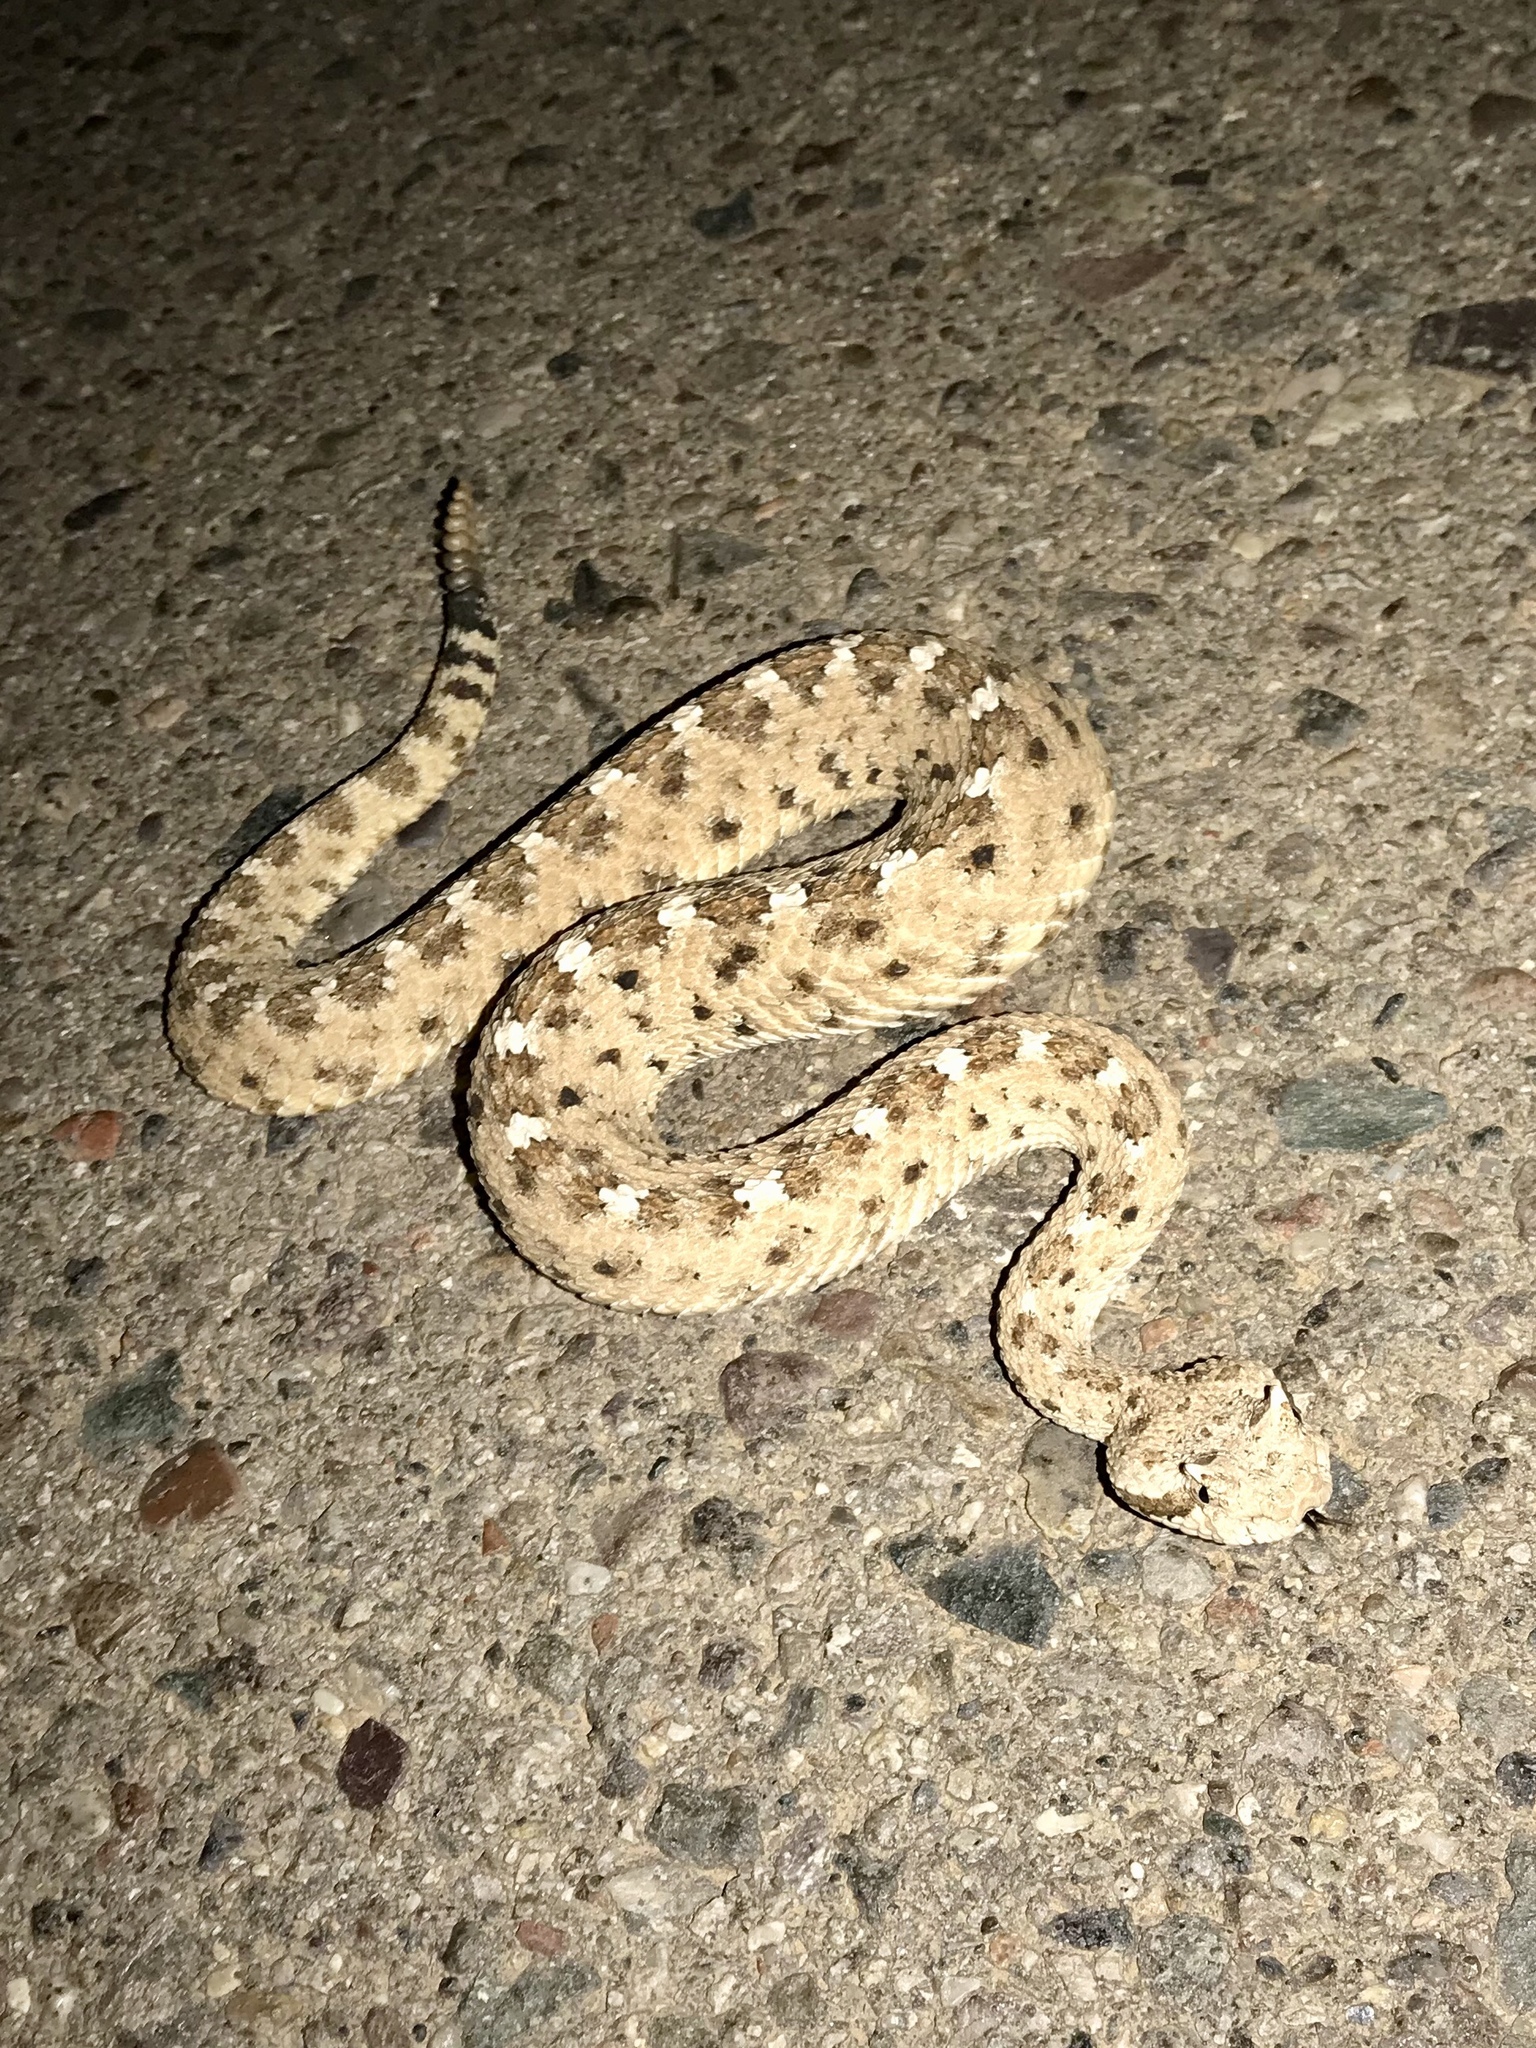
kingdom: Animalia
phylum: Chordata
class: Squamata
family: Viperidae
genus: Crotalus
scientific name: Crotalus cerastes
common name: Sidewinder
